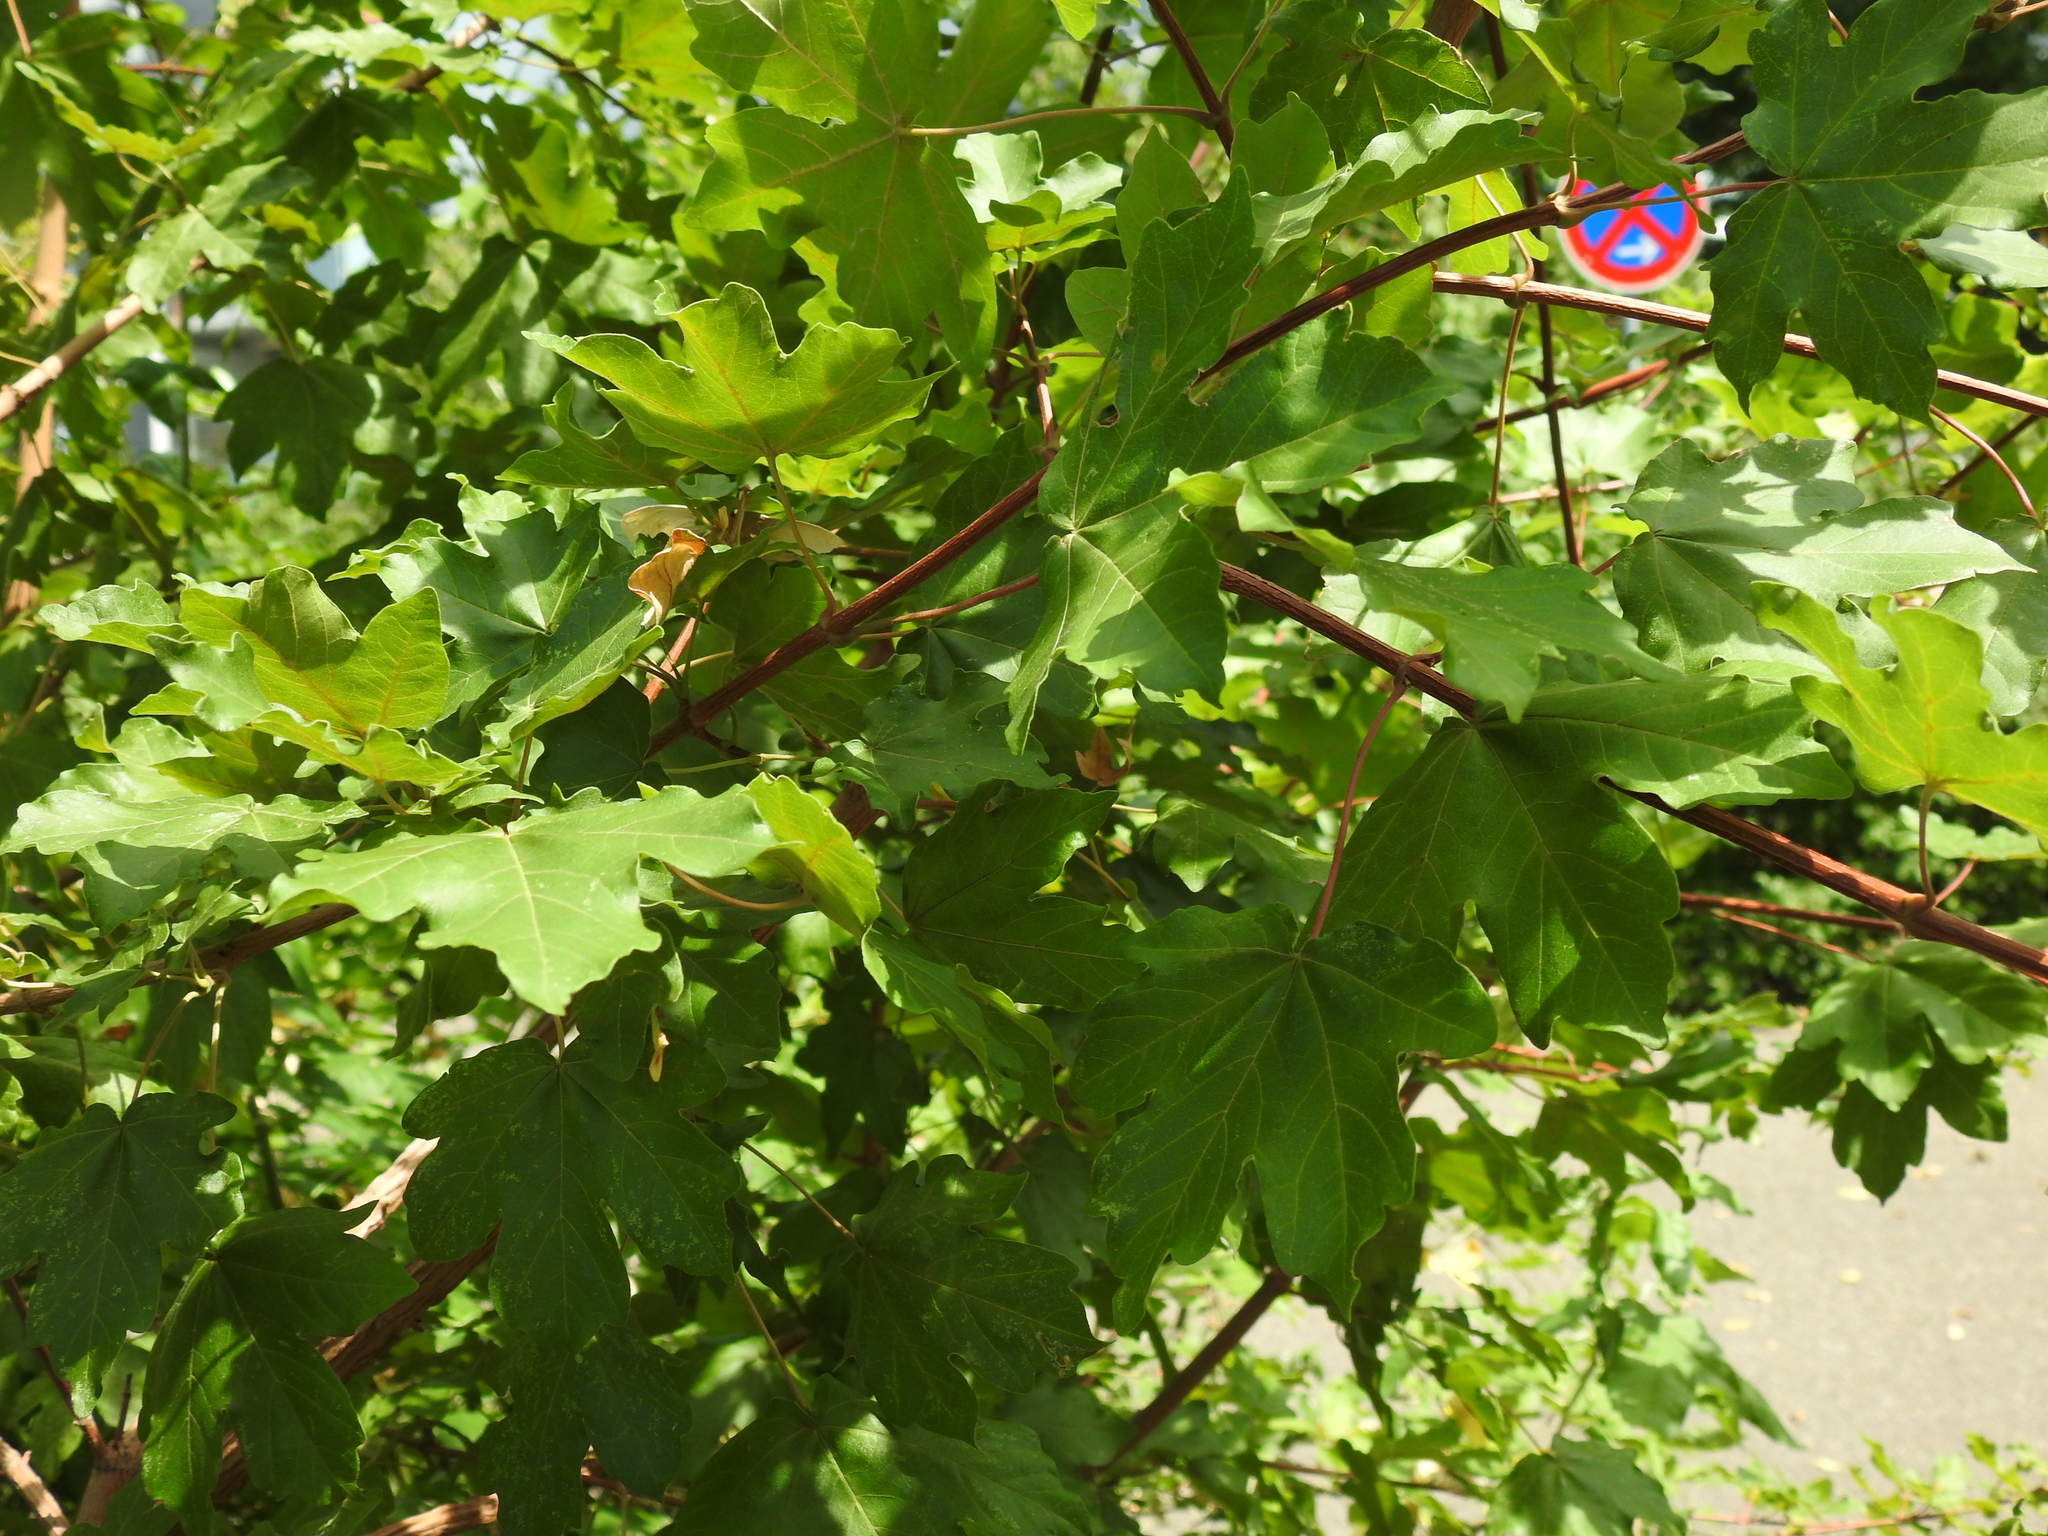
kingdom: Plantae
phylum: Tracheophyta
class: Magnoliopsida
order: Sapindales
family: Sapindaceae
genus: Acer
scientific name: Acer pseudoplatanus
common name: Sycamore
